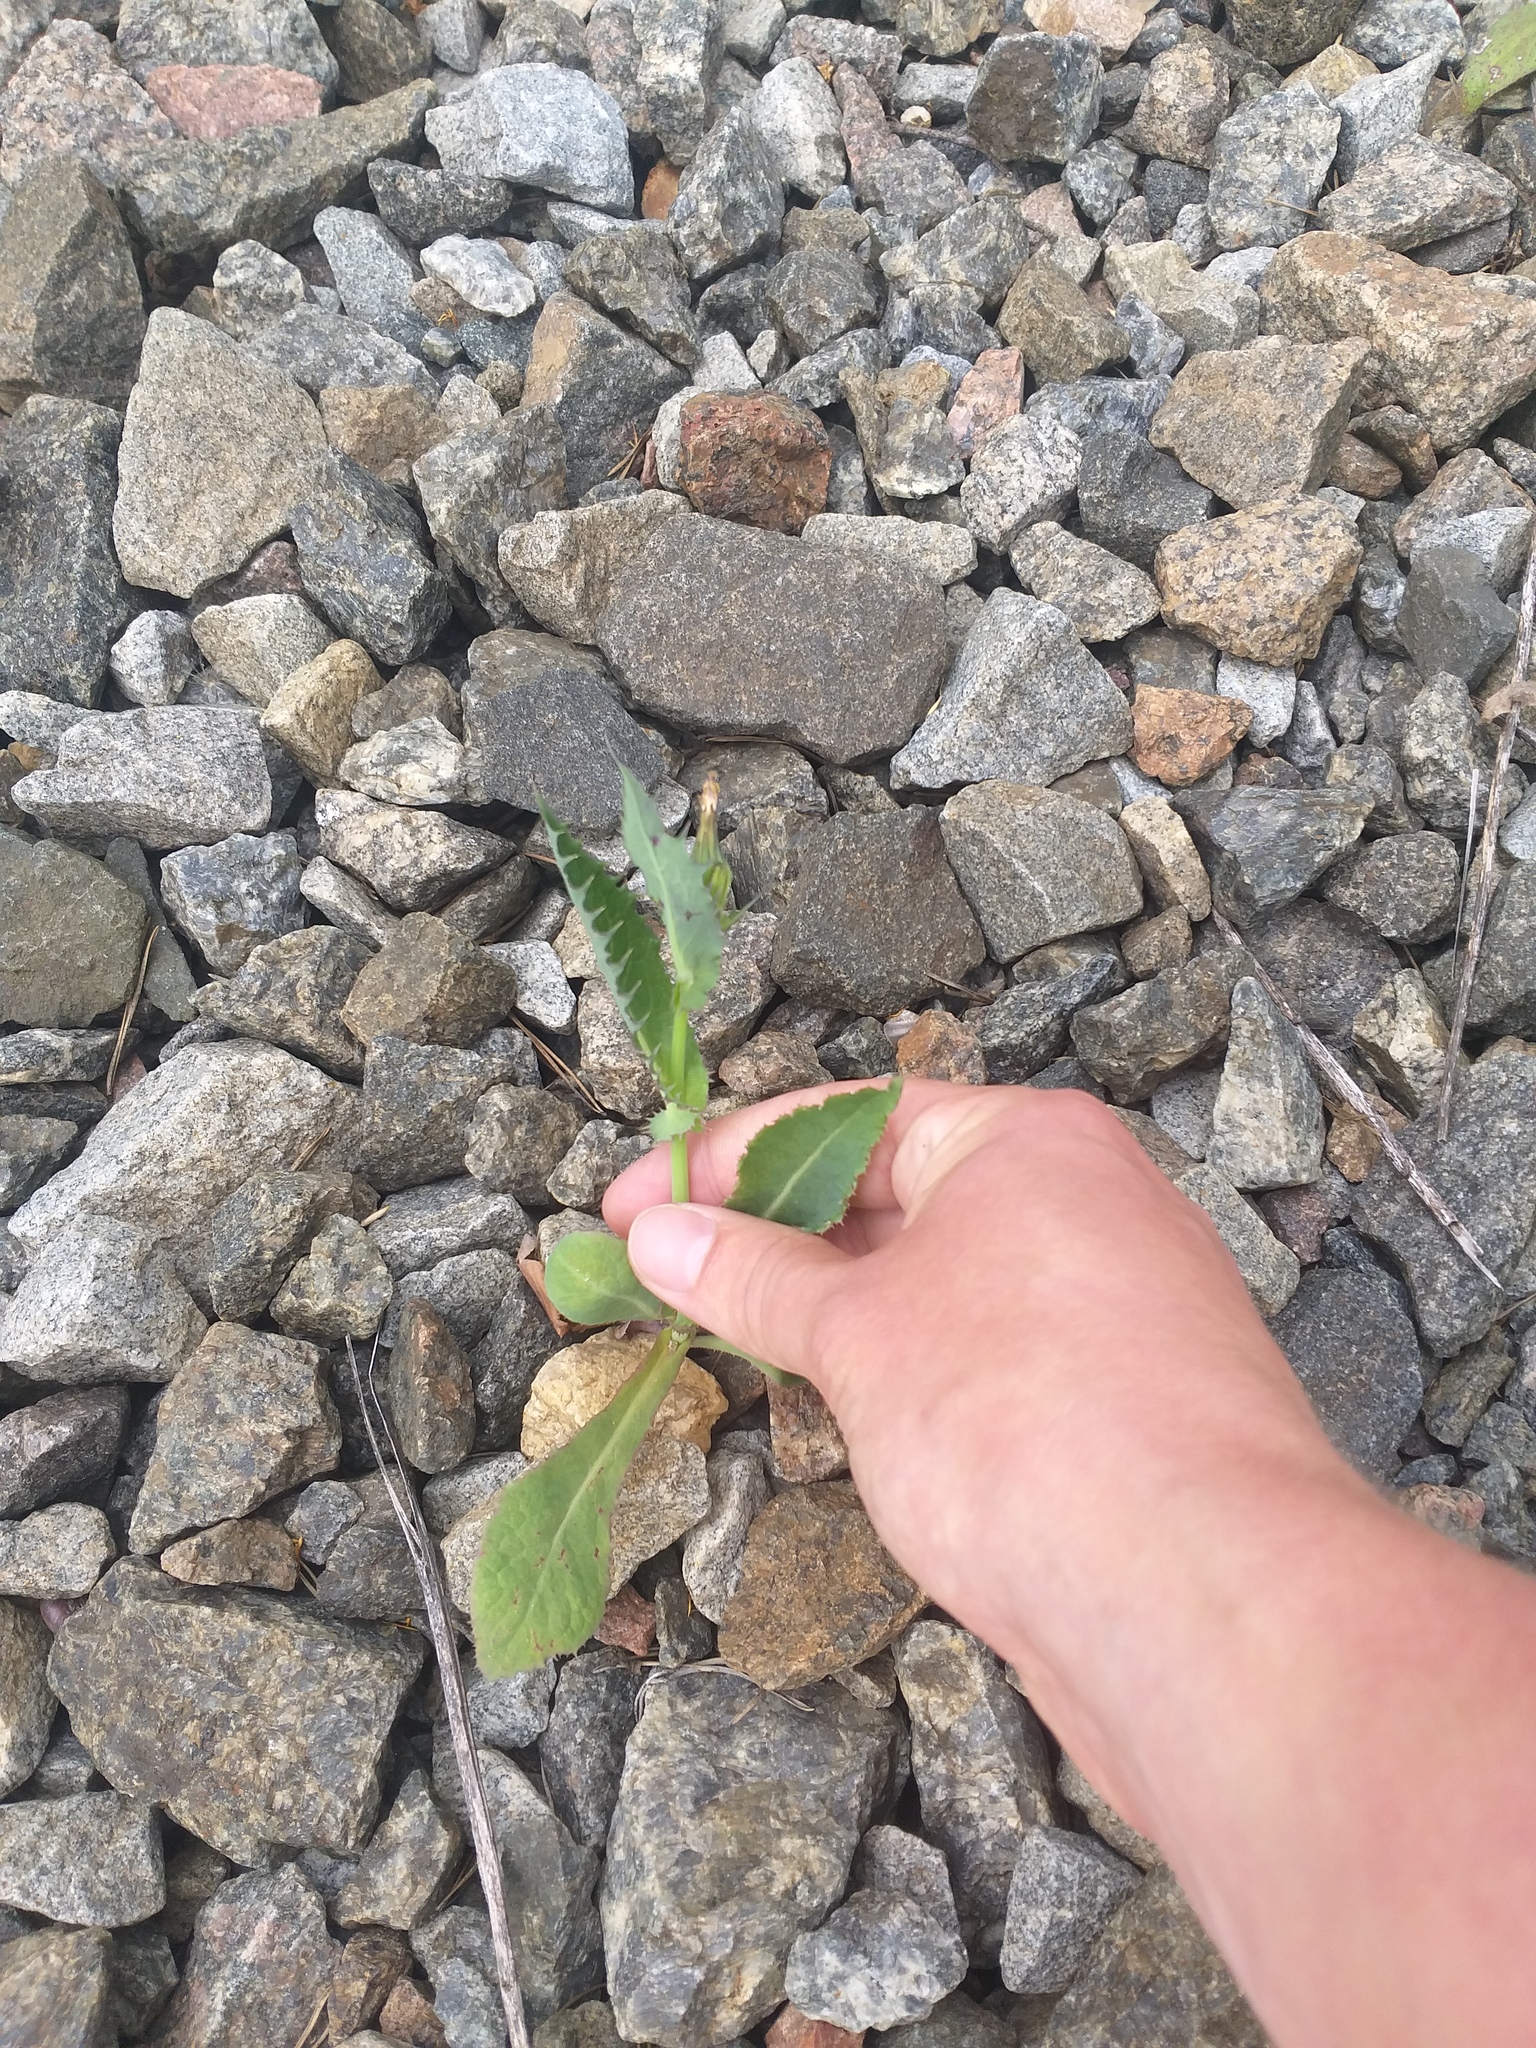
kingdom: Plantae
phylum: Tracheophyta
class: Magnoliopsida
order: Asterales
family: Asteraceae
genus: Sonchus
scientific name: Sonchus asper
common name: Prickly sow-thistle
